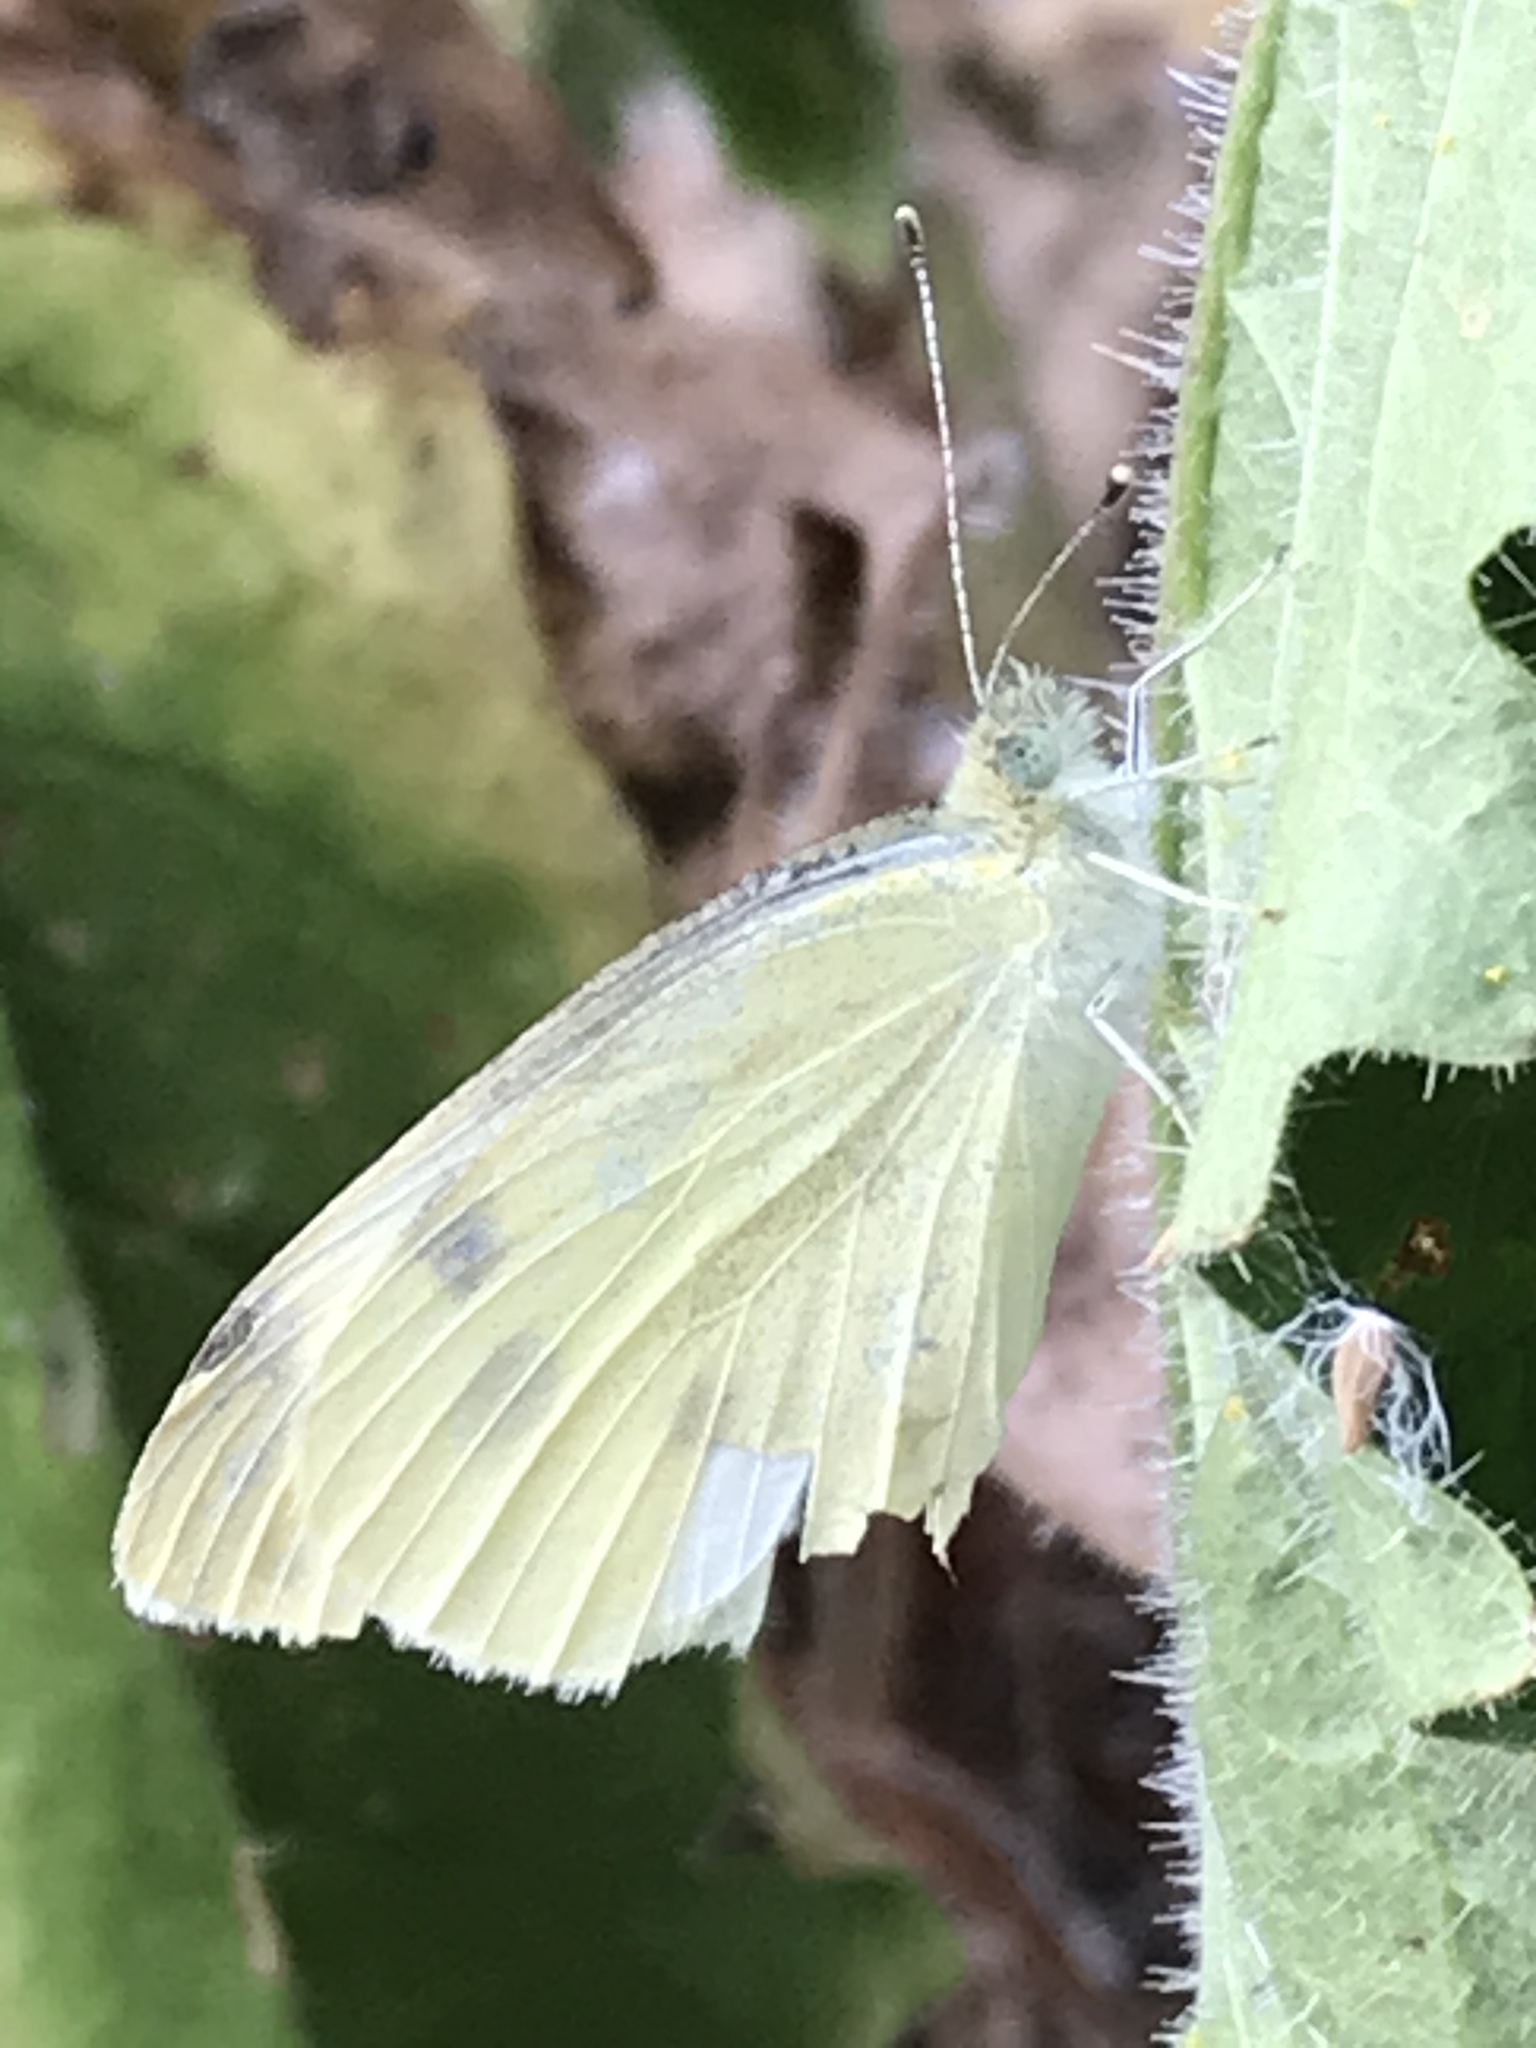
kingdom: Animalia
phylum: Arthropoda
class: Insecta
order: Lepidoptera
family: Pieridae
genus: Pieris
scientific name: Pieris rapae
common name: Small white
